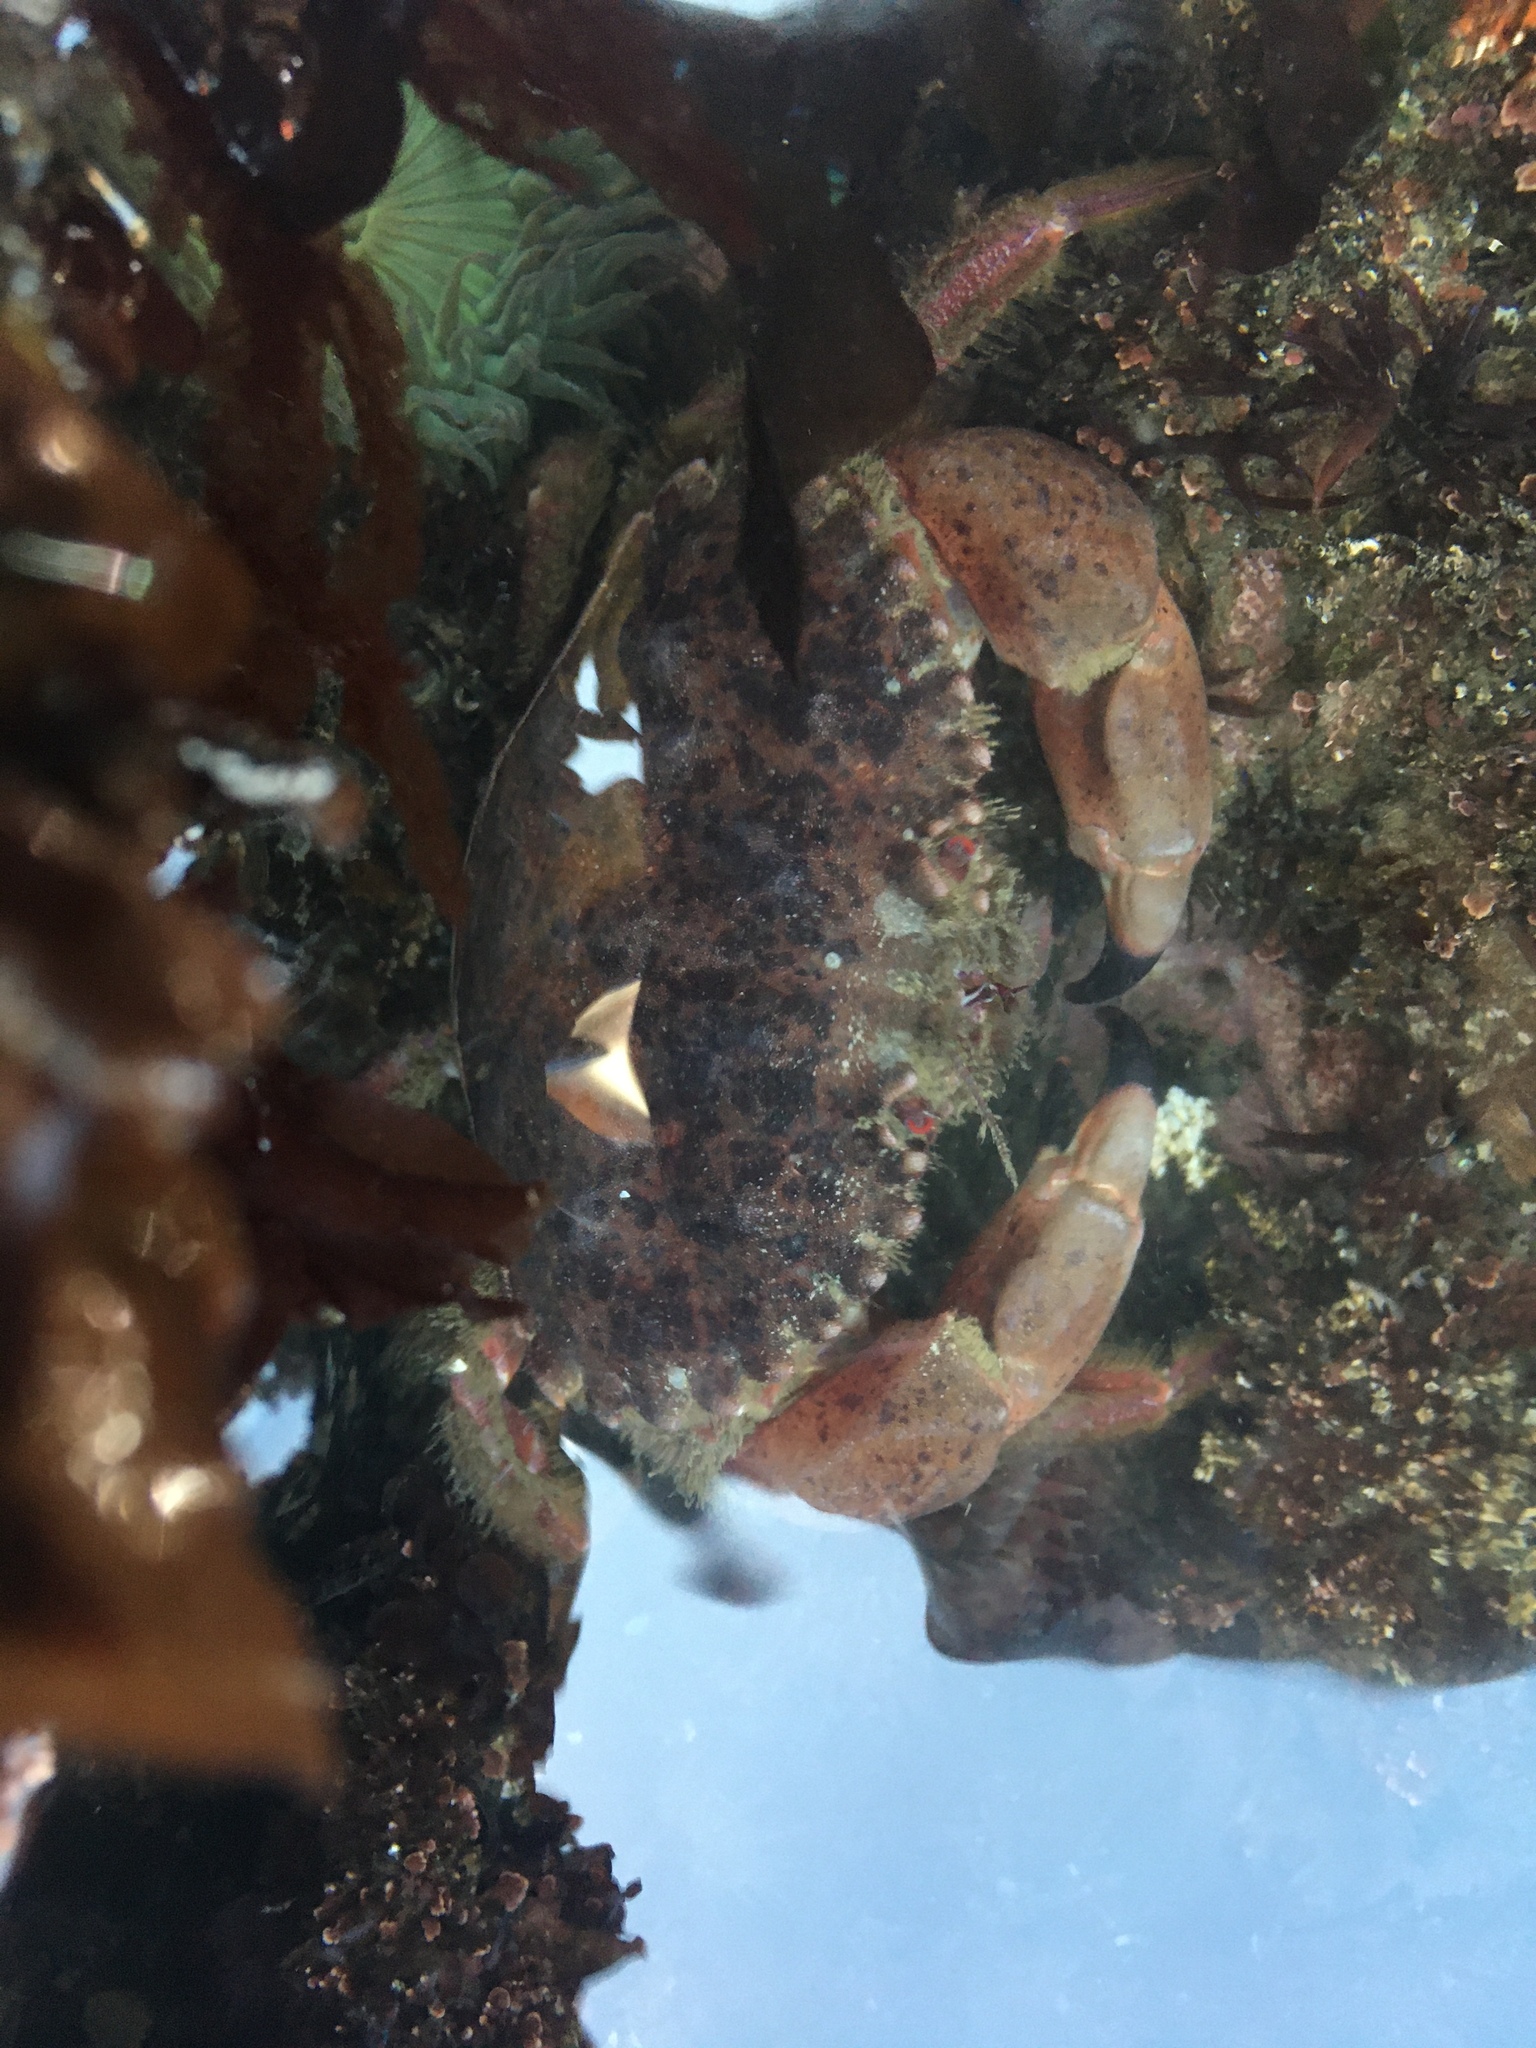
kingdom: Animalia
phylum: Arthropoda
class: Malacostraca
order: Decapoda
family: Cancridae
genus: Romaleon
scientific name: Romaleon antennarium
